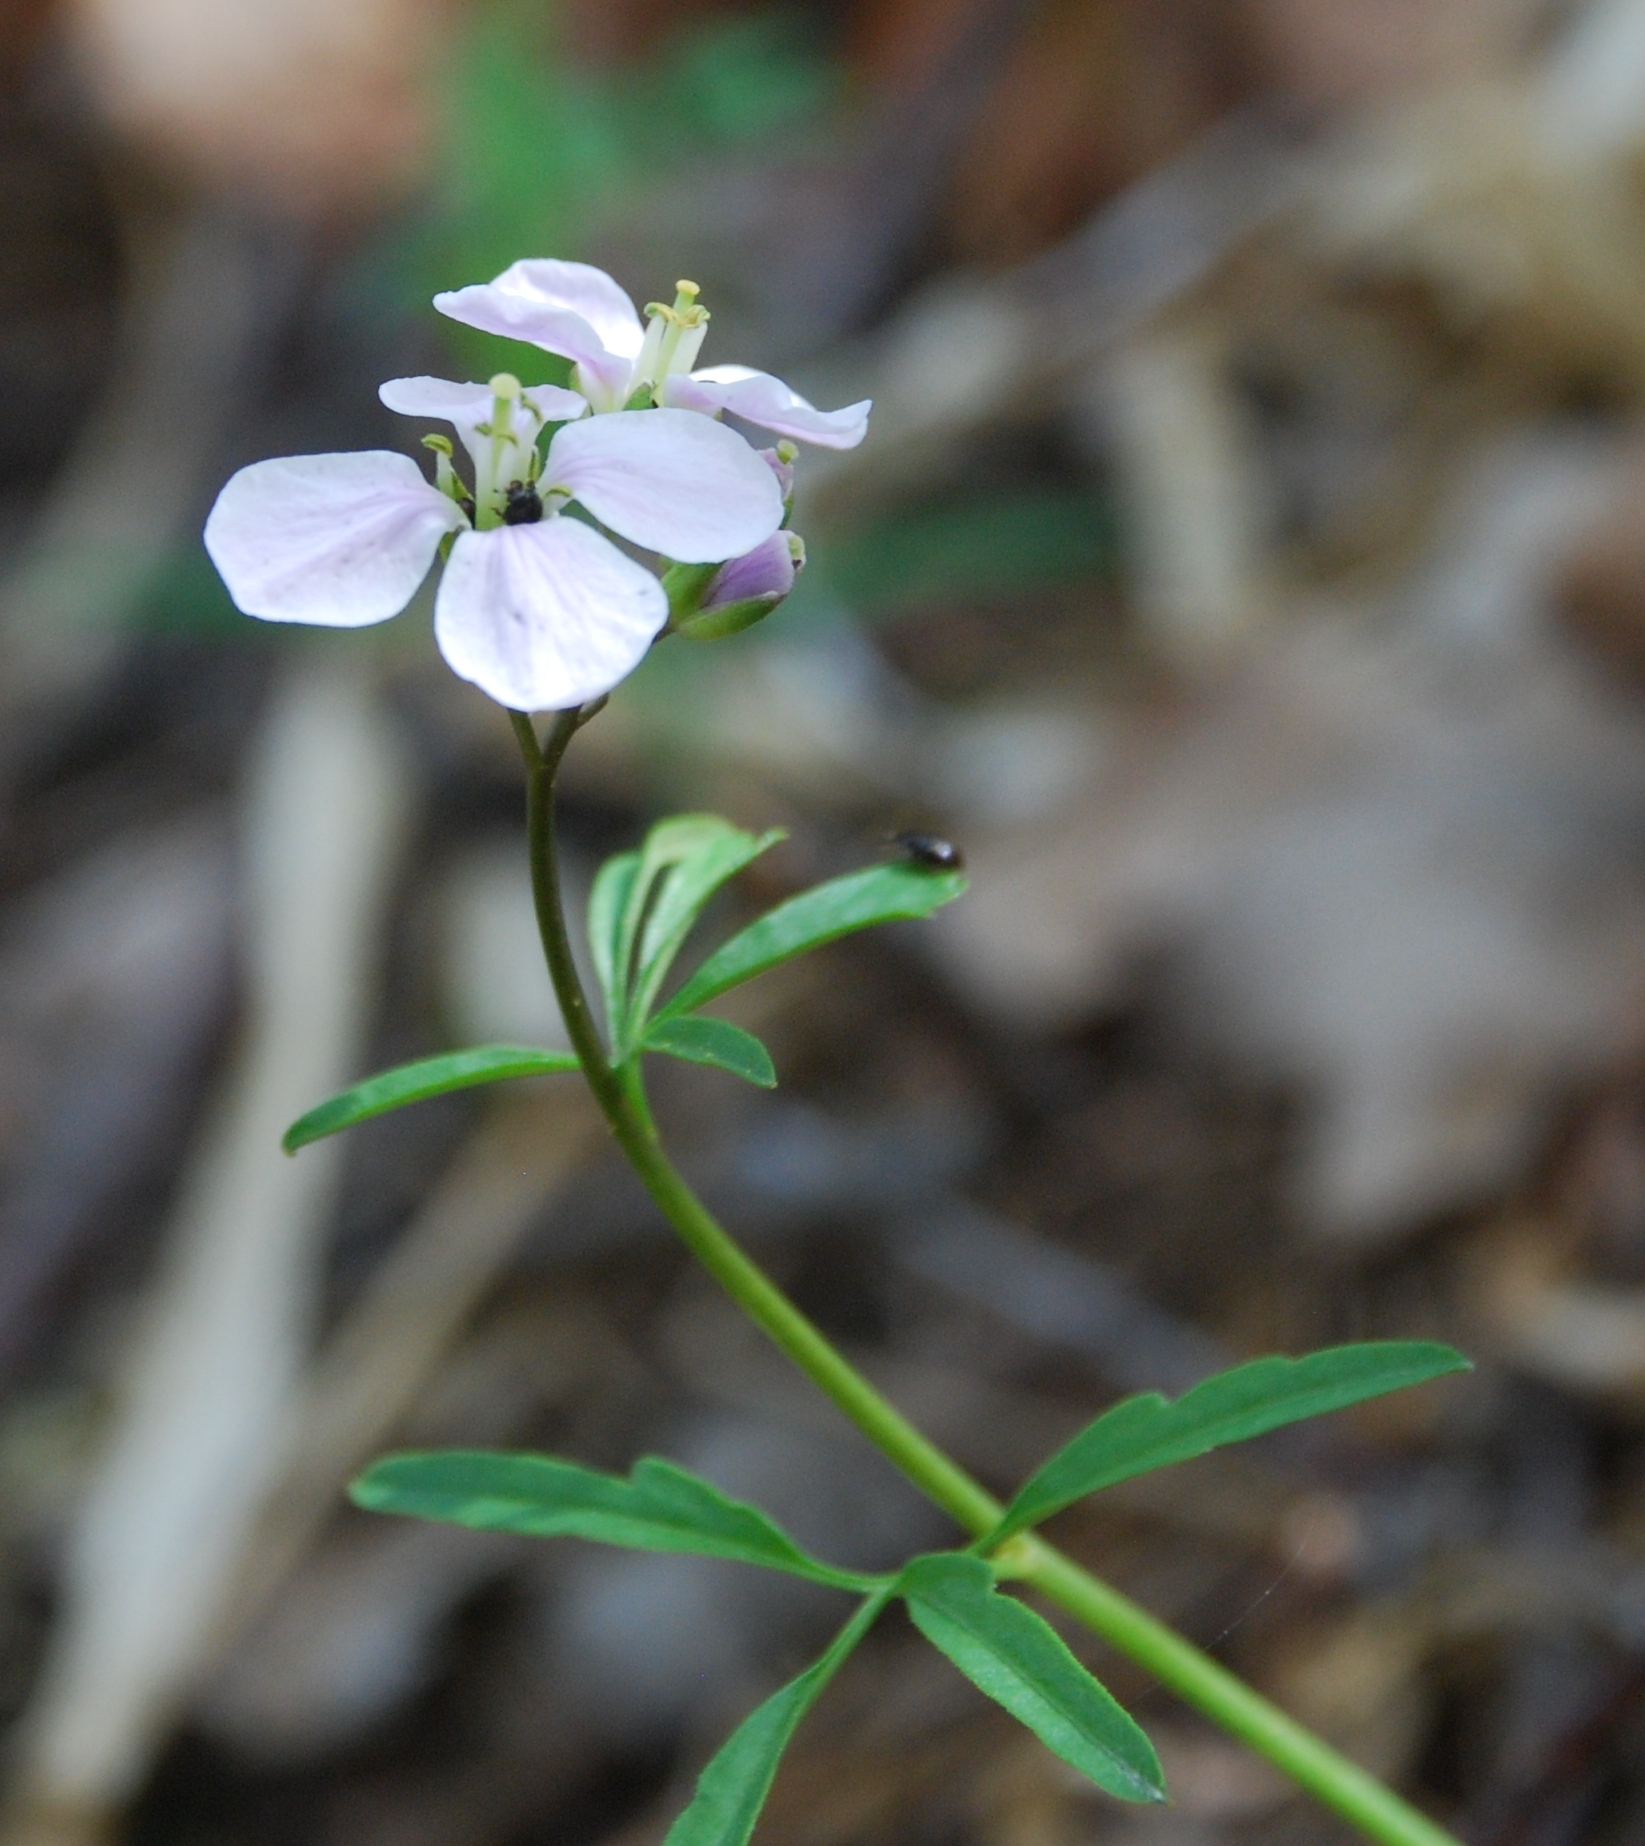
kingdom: Plantae
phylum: Tracheophyta
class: Magnoliopsida
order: Brassicales
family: Brassicaceae
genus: Cardamine
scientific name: Cardamine trifida
